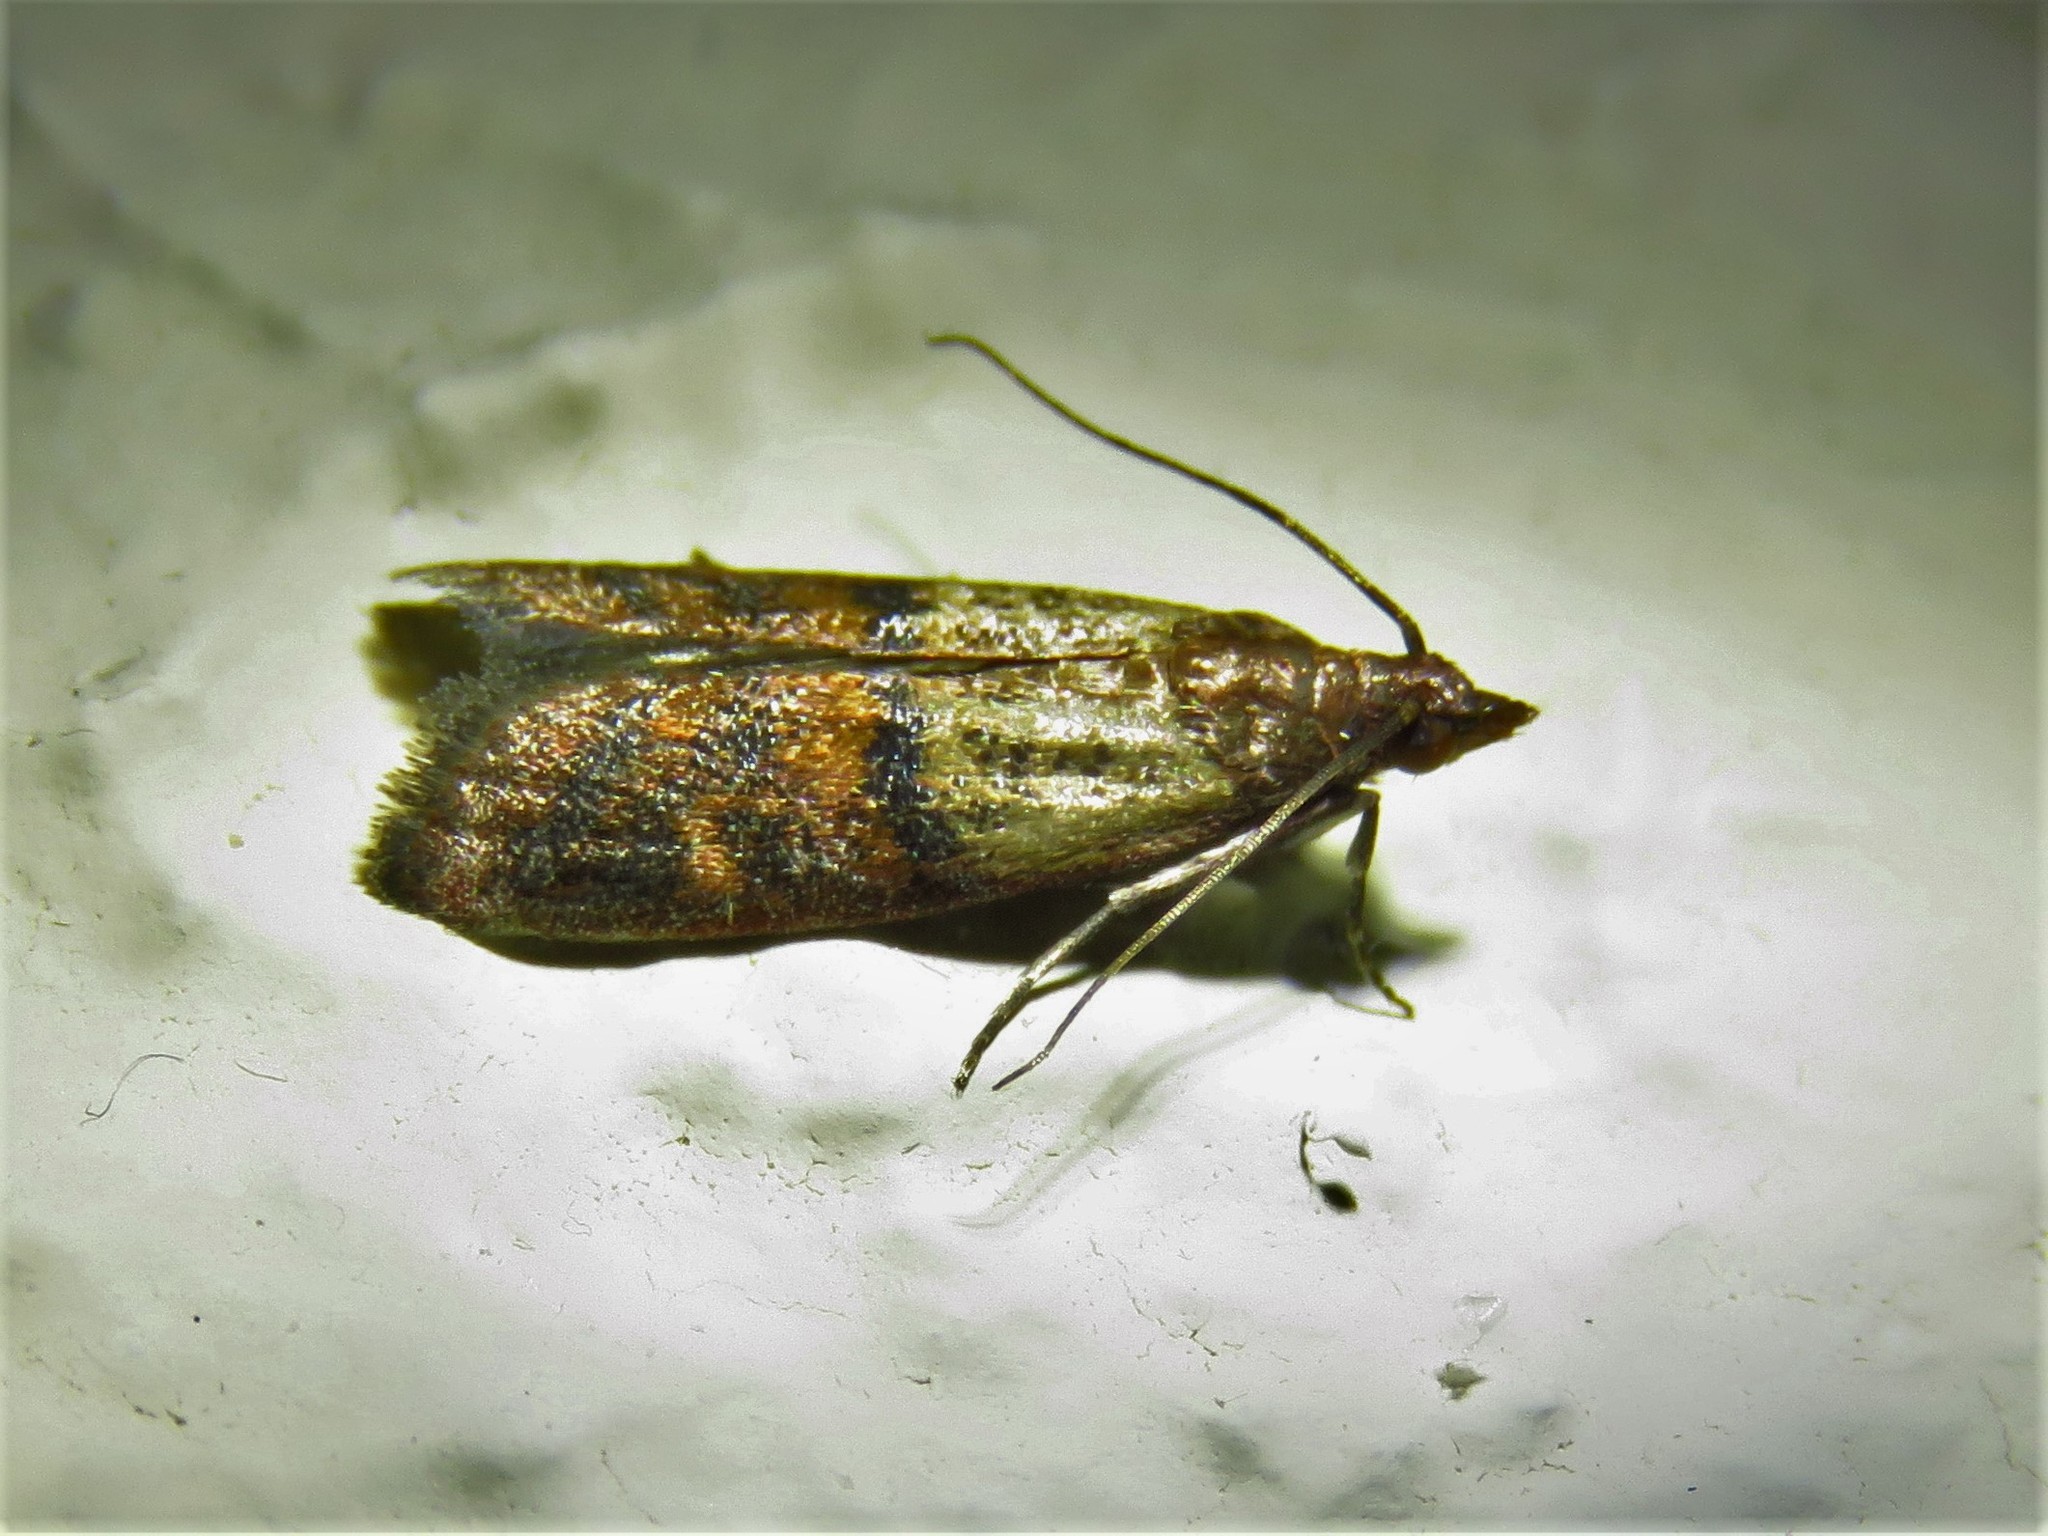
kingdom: Animalia
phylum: Arthropoda
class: Insecta
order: Lepidoptera
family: Pyralidae
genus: Plodia
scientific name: Plodia interpunctella
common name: Indian meal moth
